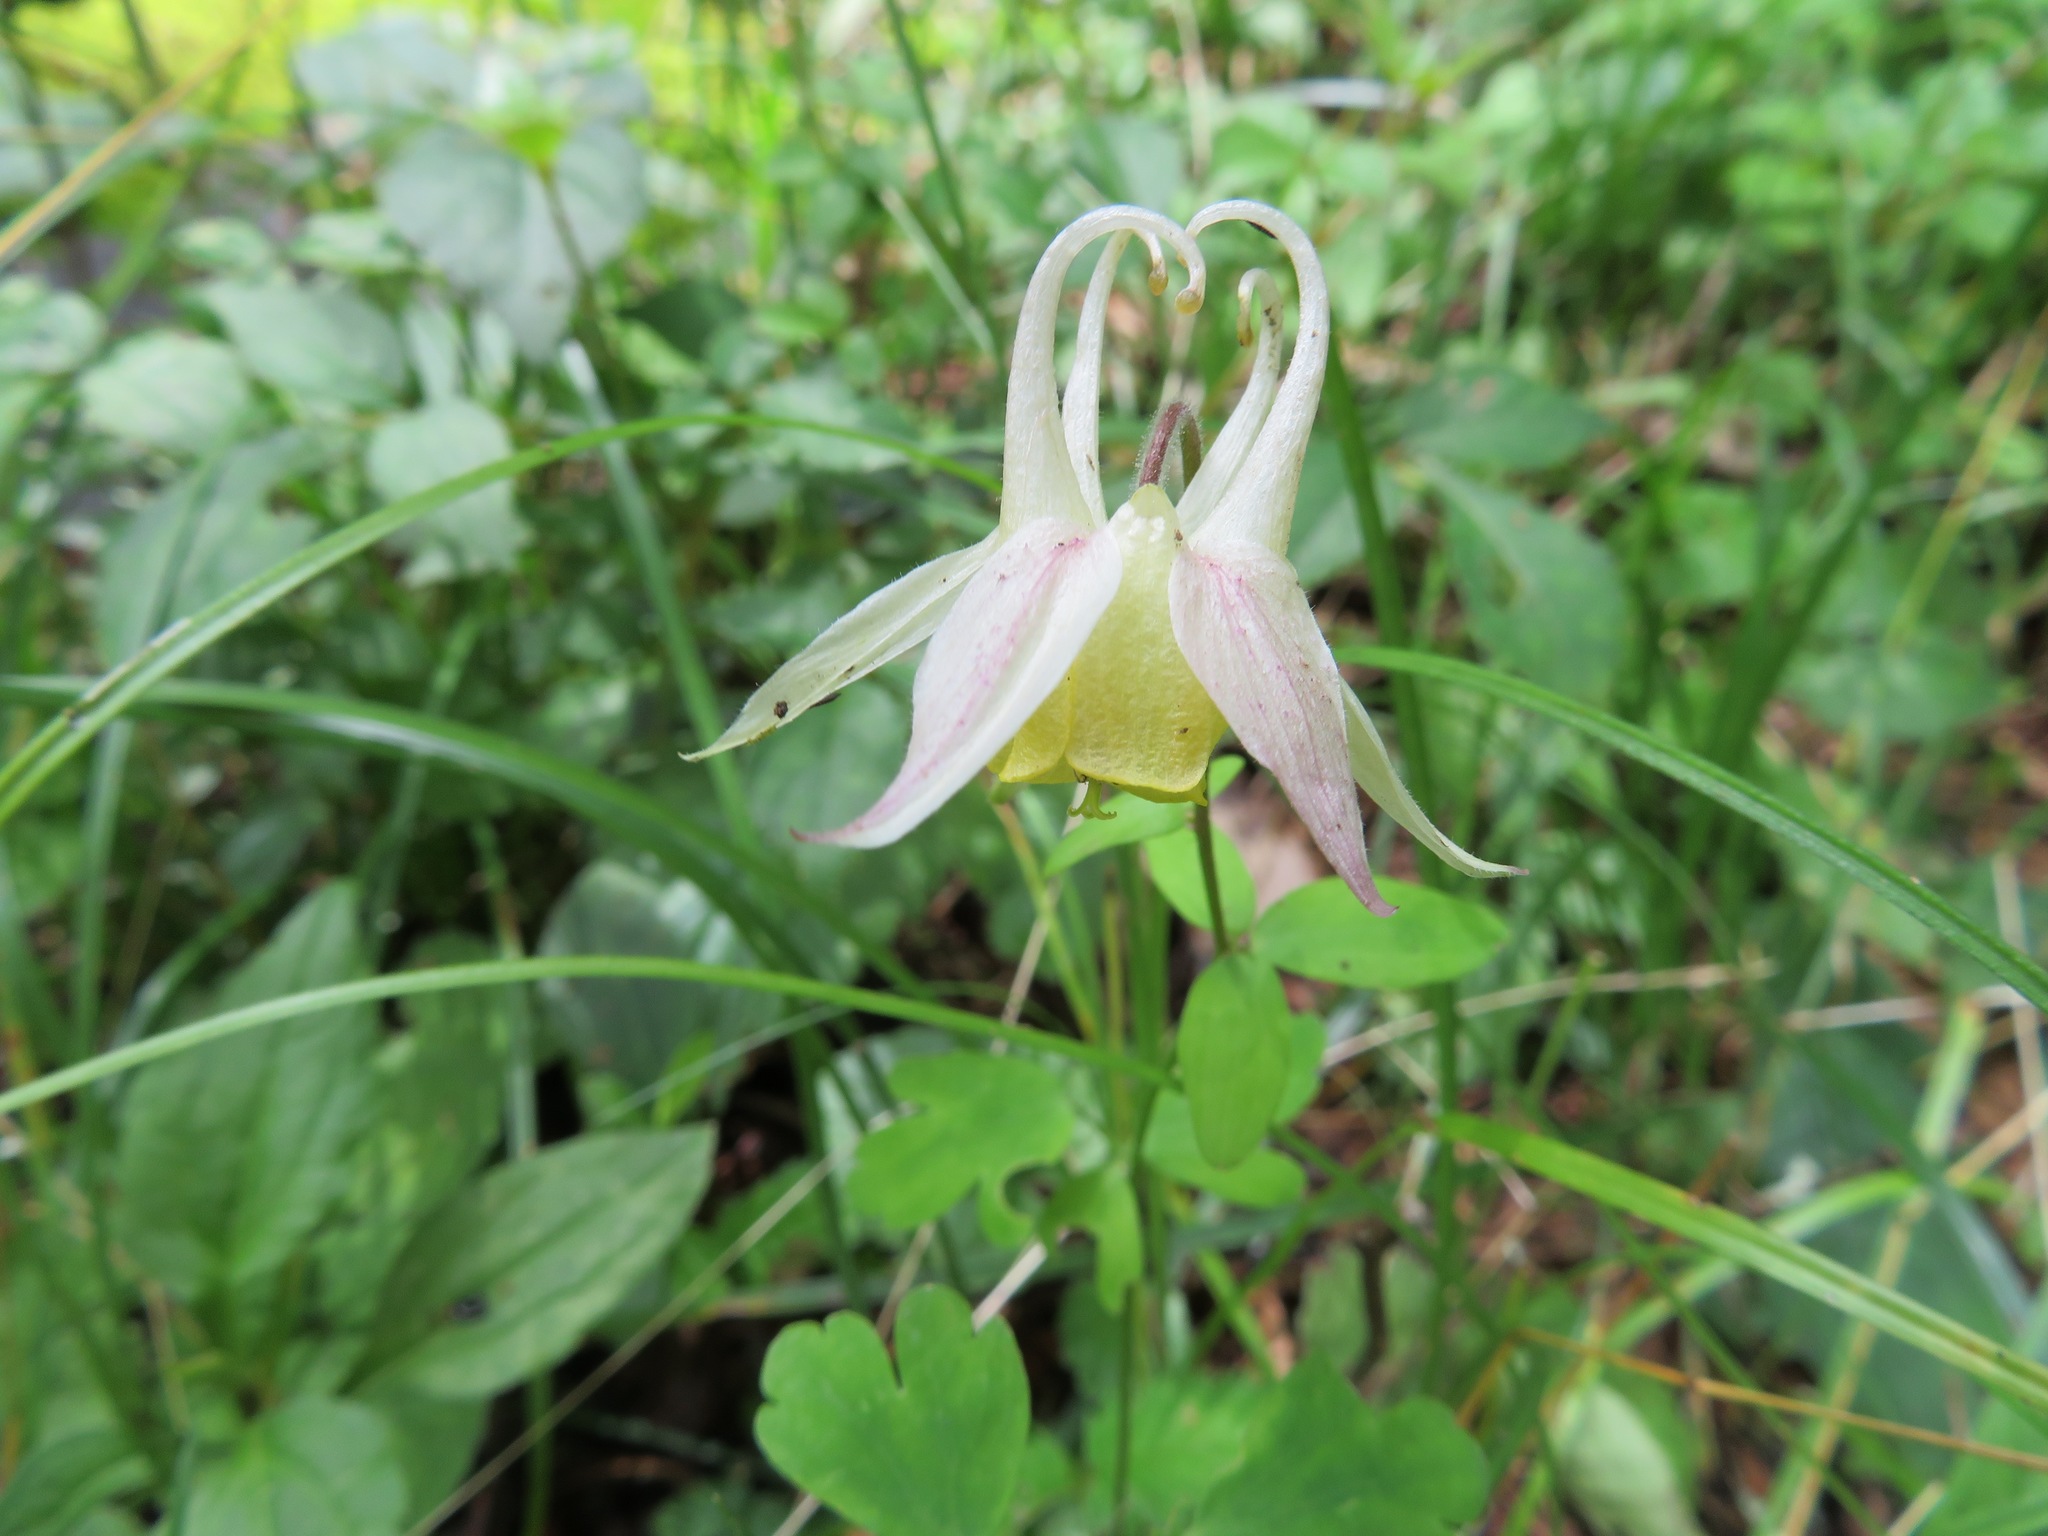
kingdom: Plantae
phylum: Tracheophyta
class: Magnoliopsida
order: Ranunculales
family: Ranunculaceae
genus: Aquilegia
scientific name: Aquilegia buergerana
